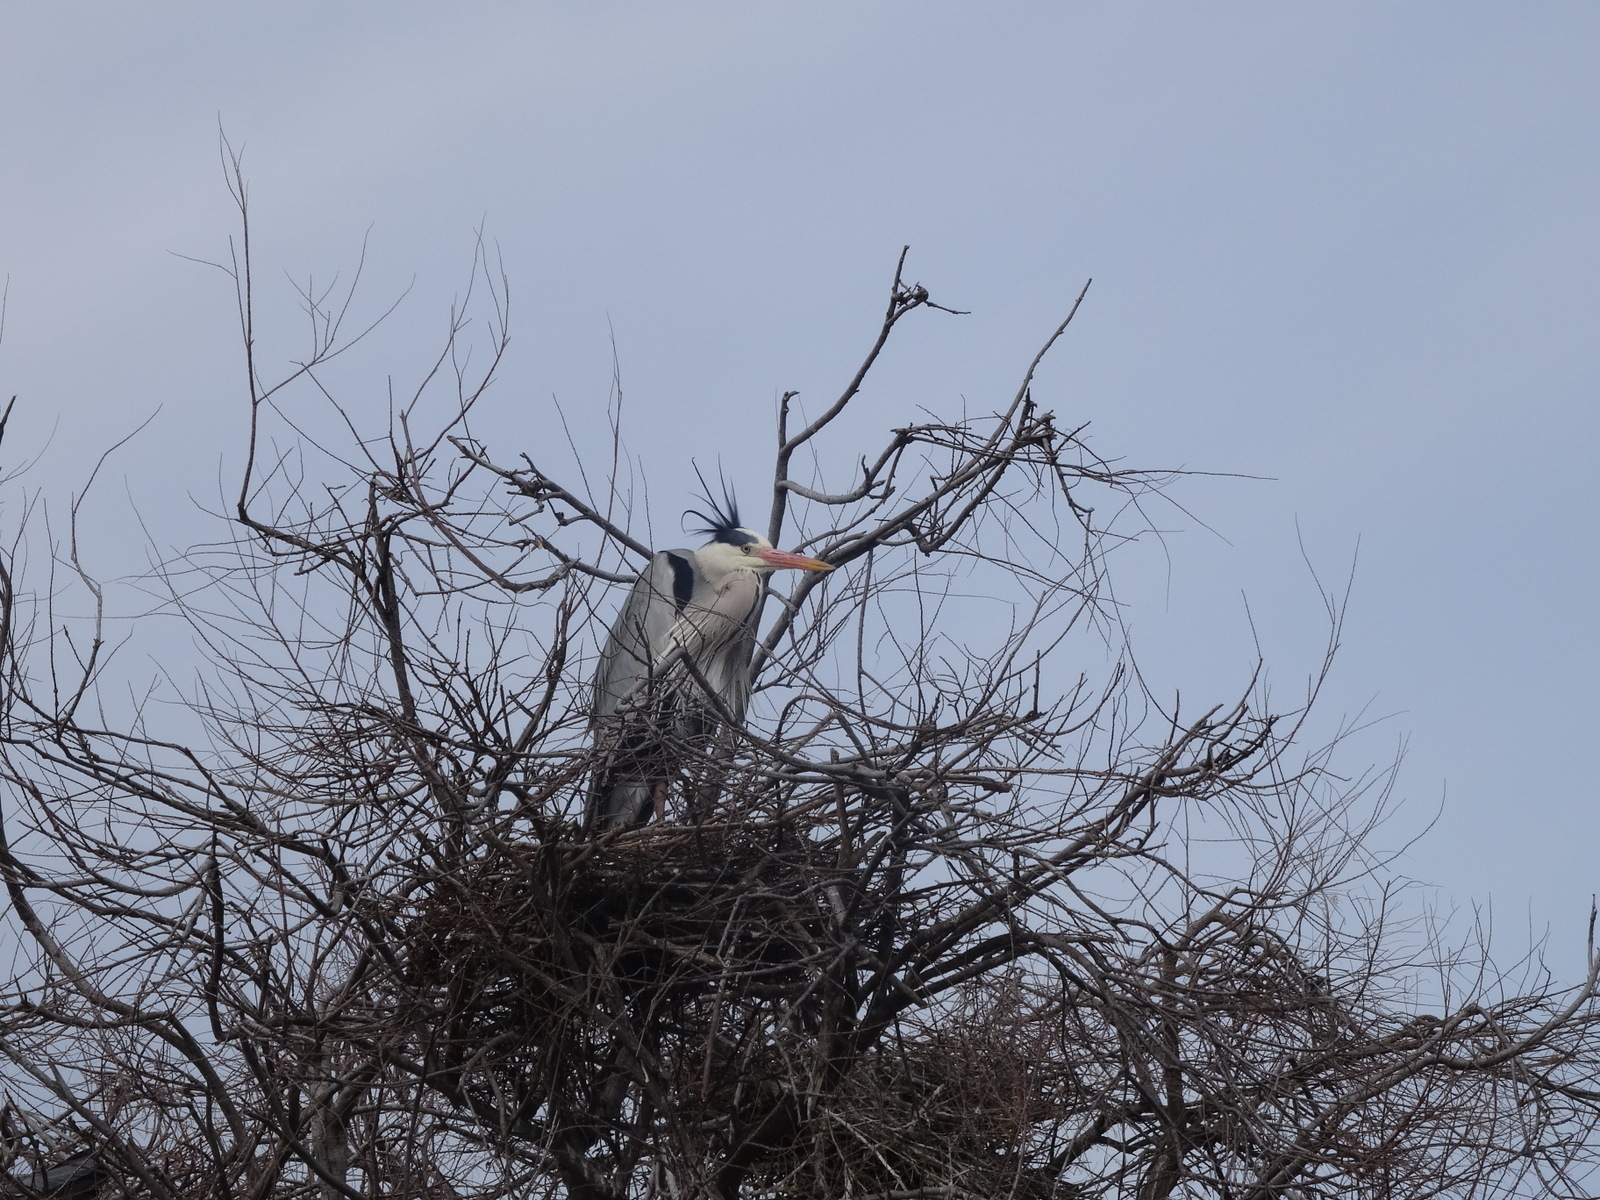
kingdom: Animalia
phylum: Chordata
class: Aves
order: Pelecaniformes
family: Ardeidae
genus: Ardea
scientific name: Ardea cinerea
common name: Grey heron
